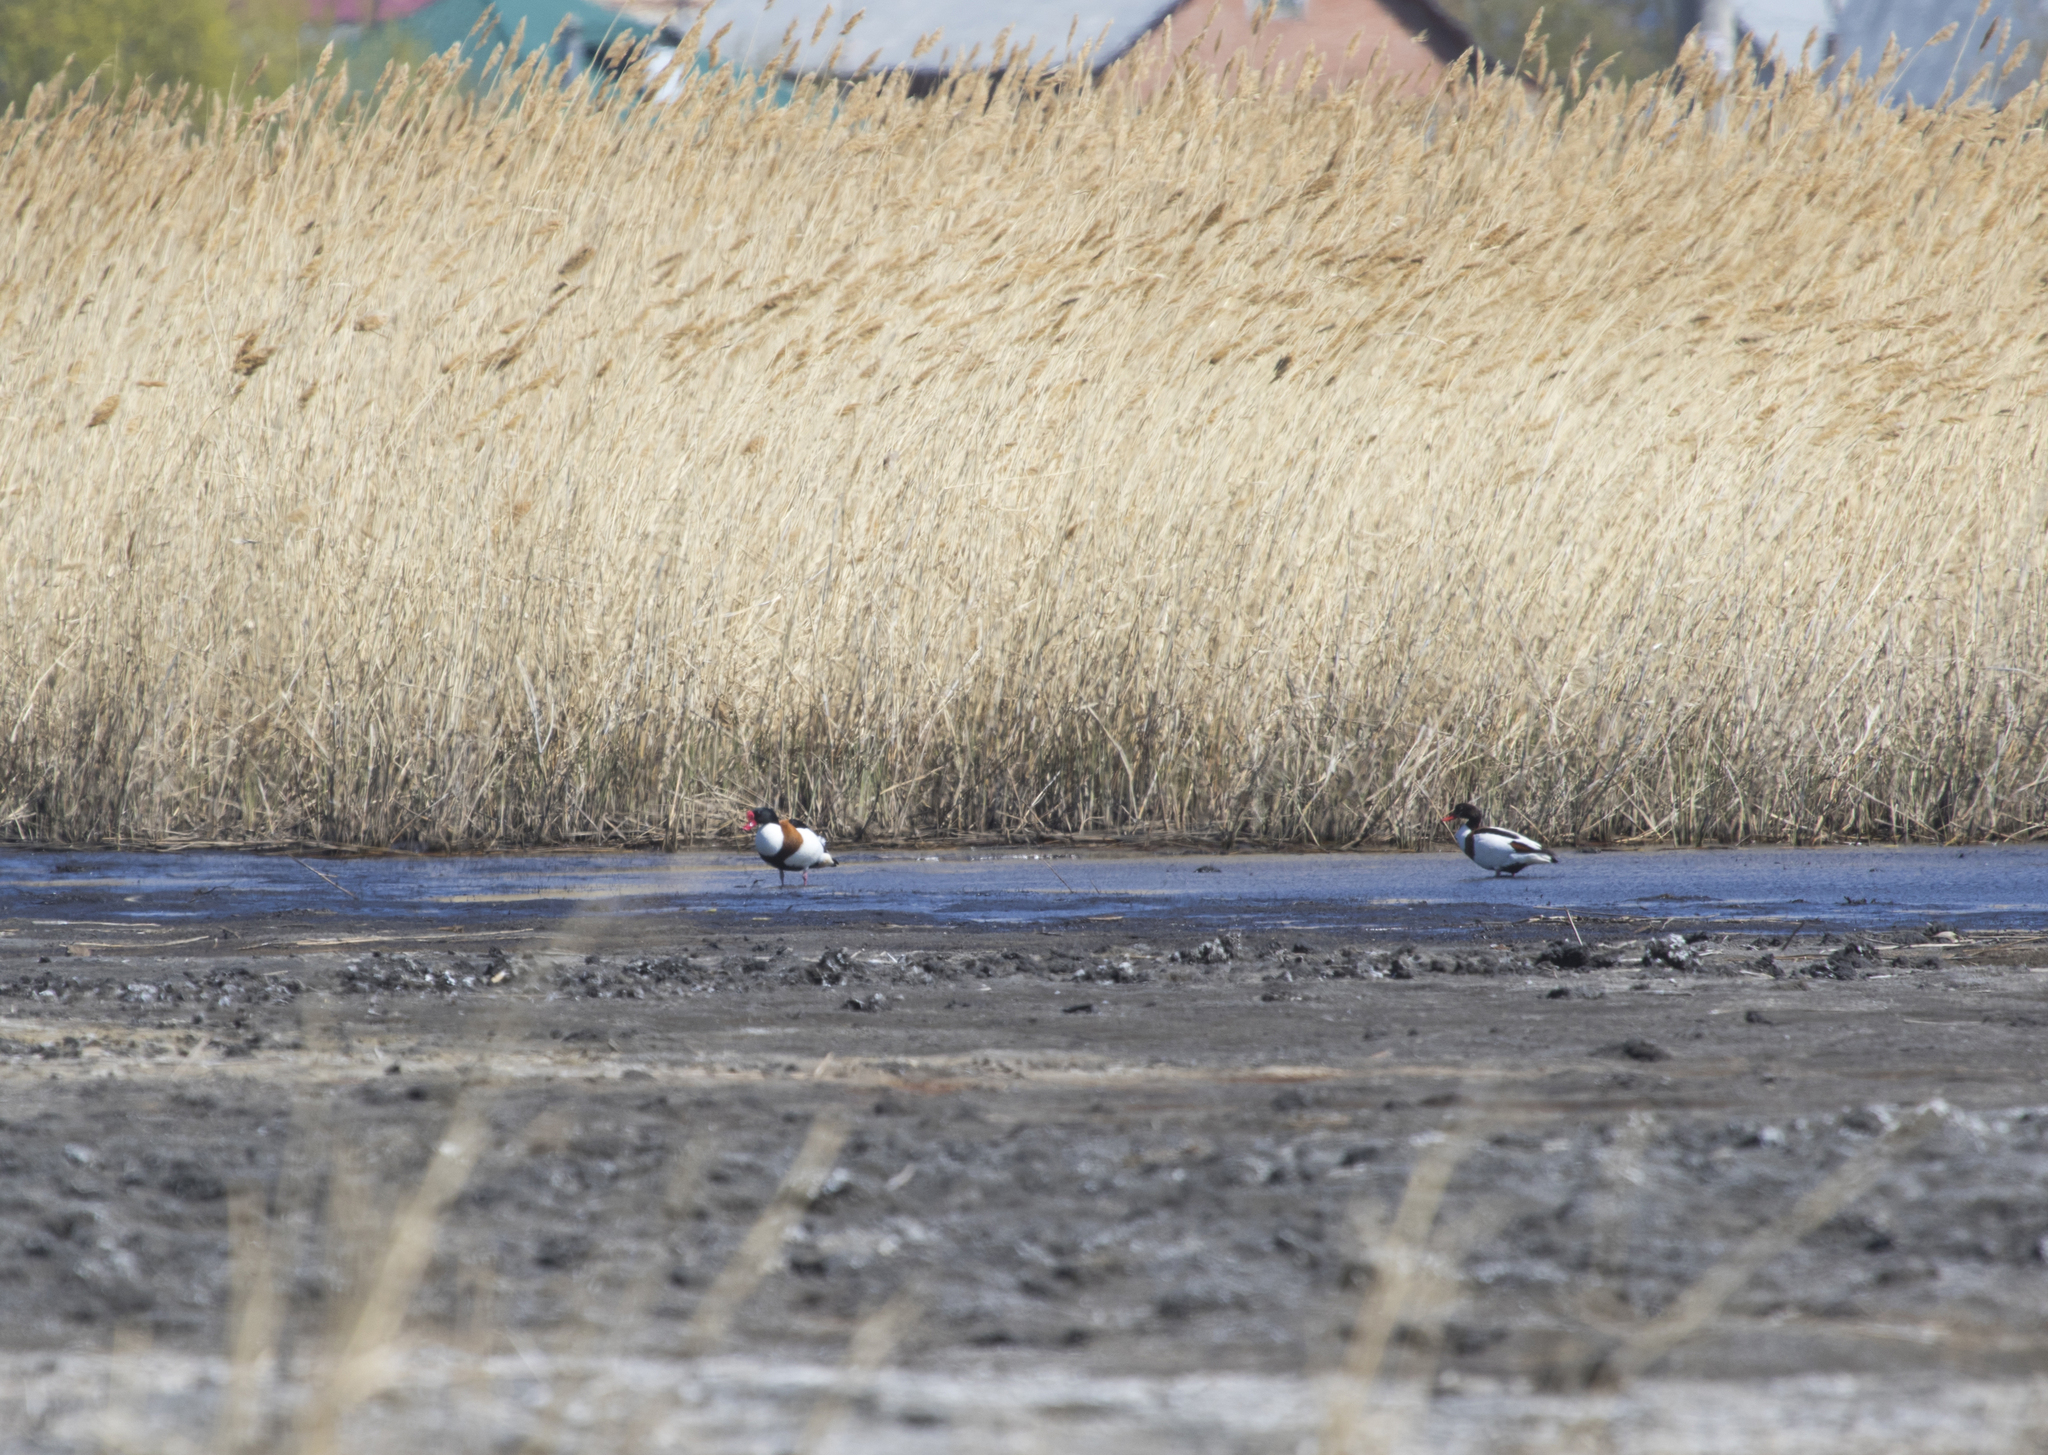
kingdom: Animalia
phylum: Chordata
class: Aves
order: Anseriformes
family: Anatidae
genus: Tadorna
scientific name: Tadorna tadorna
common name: Common shelduck
